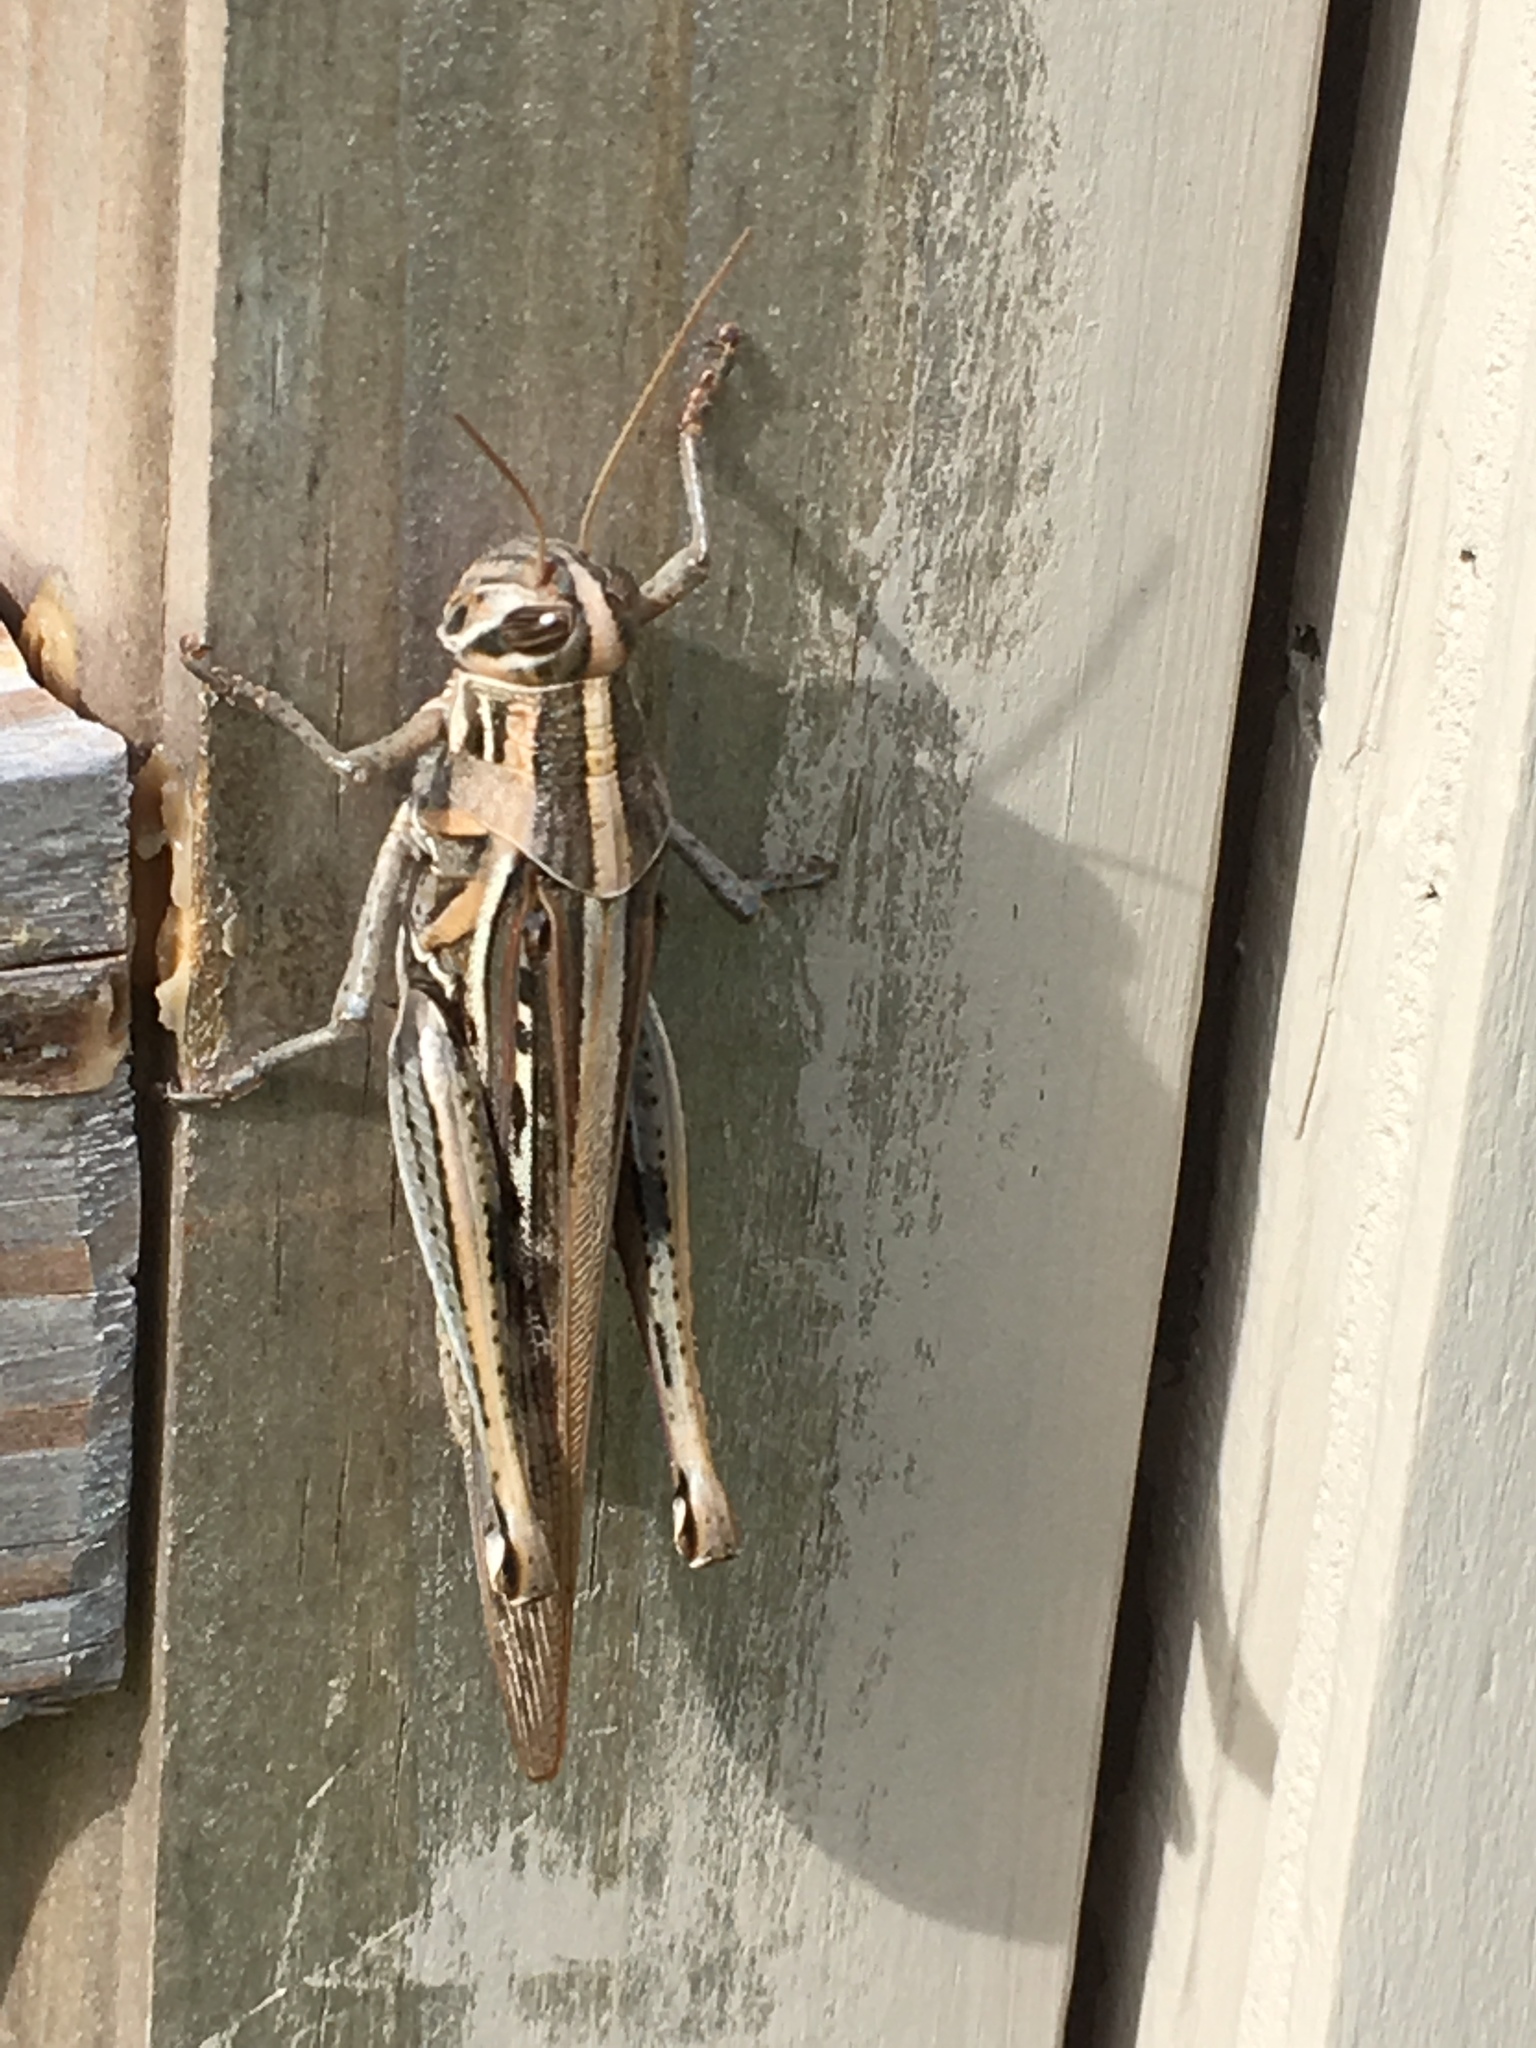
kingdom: Animalia
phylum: Arthropoda
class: Insecta
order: Orthoptera
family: Acrididae
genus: Schistocerca
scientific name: Schistocerca americana
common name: American bird locust
